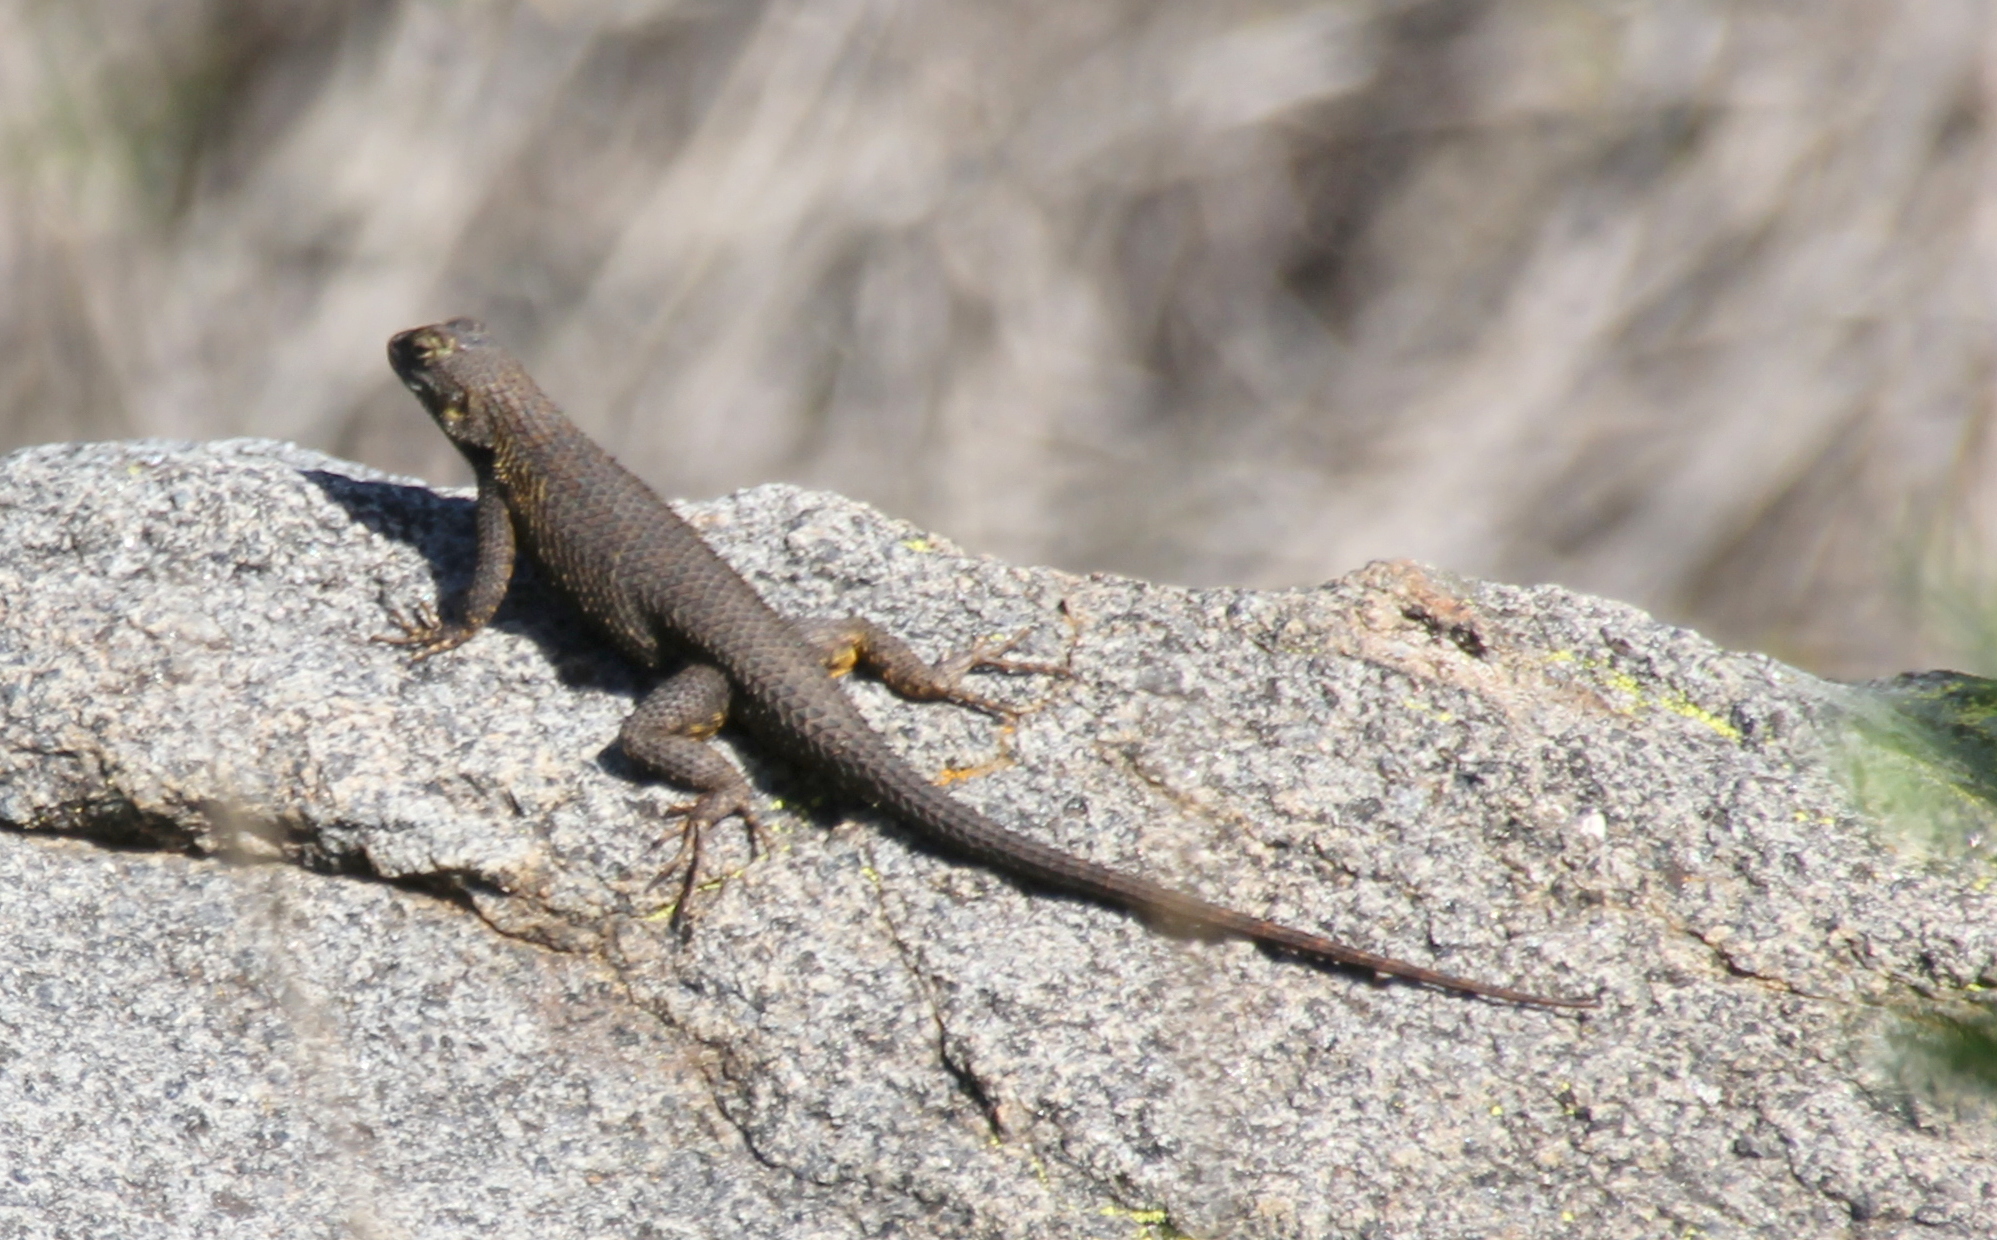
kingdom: Animalia
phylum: Chordata
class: Squamata
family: Phrynosomatidae
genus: Sceloporus
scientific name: Sceloporus occidentalis
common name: Western fence lizard
